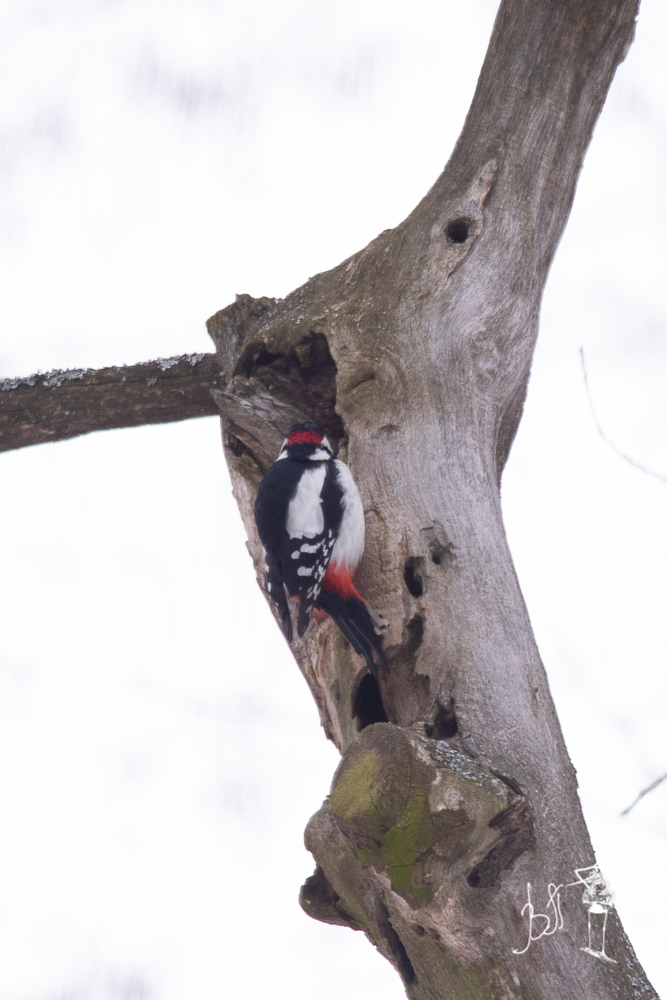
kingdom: Animalia
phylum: Chordata
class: Aves
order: Piciformes
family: Picidae
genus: Dendrocopos
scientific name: Dendrocopos major
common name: Great spotted woodpecker
